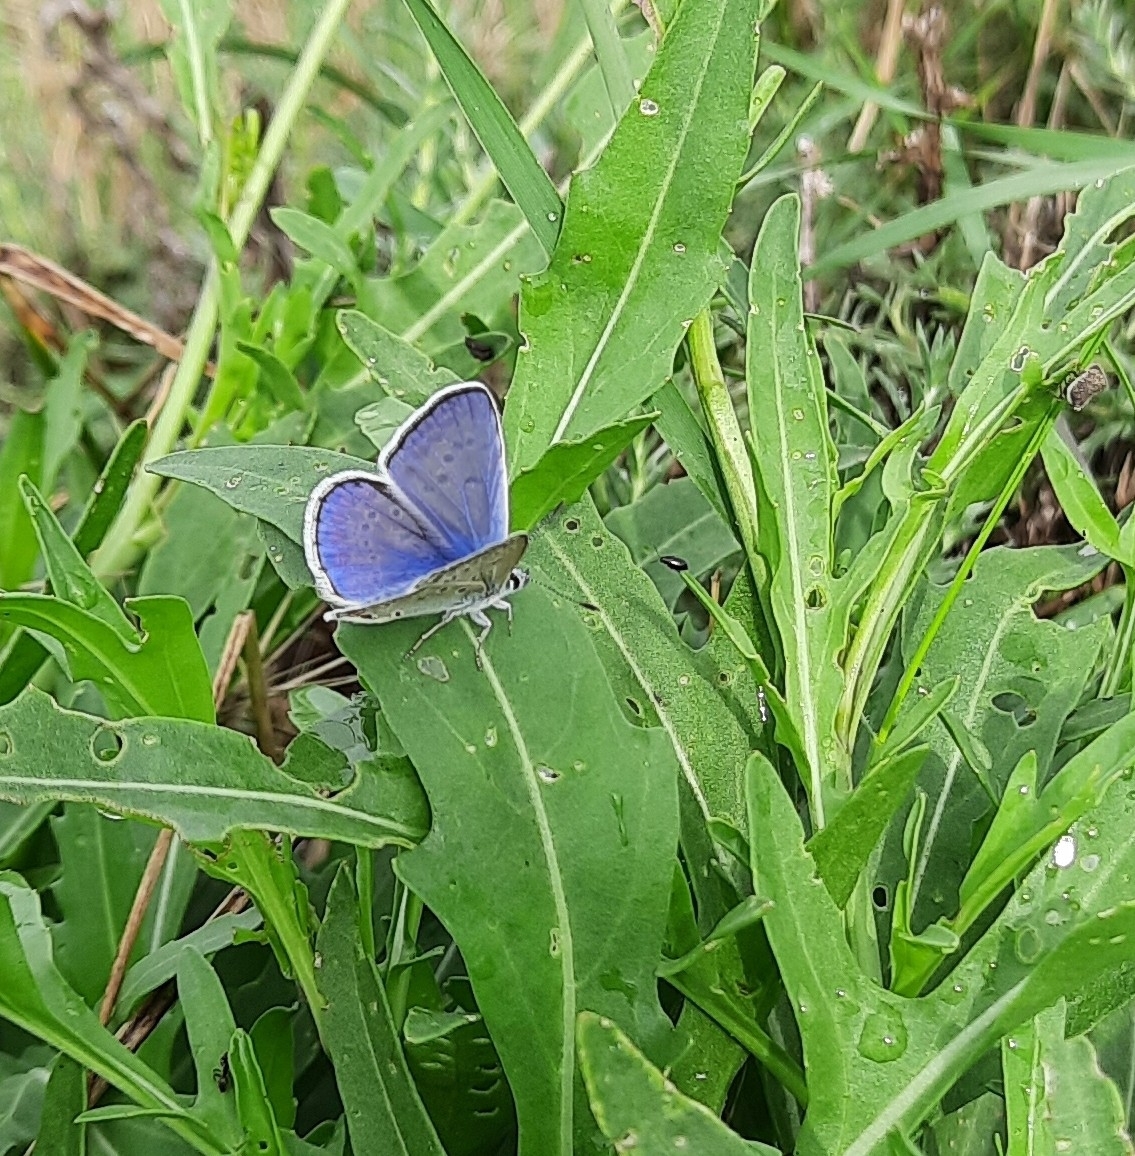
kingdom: Animalia
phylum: Arthropoda
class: Insecta
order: Lepidoptera
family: Lycaenidae
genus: Polyommatus
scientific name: Polyommatus icarus
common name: Common blue
